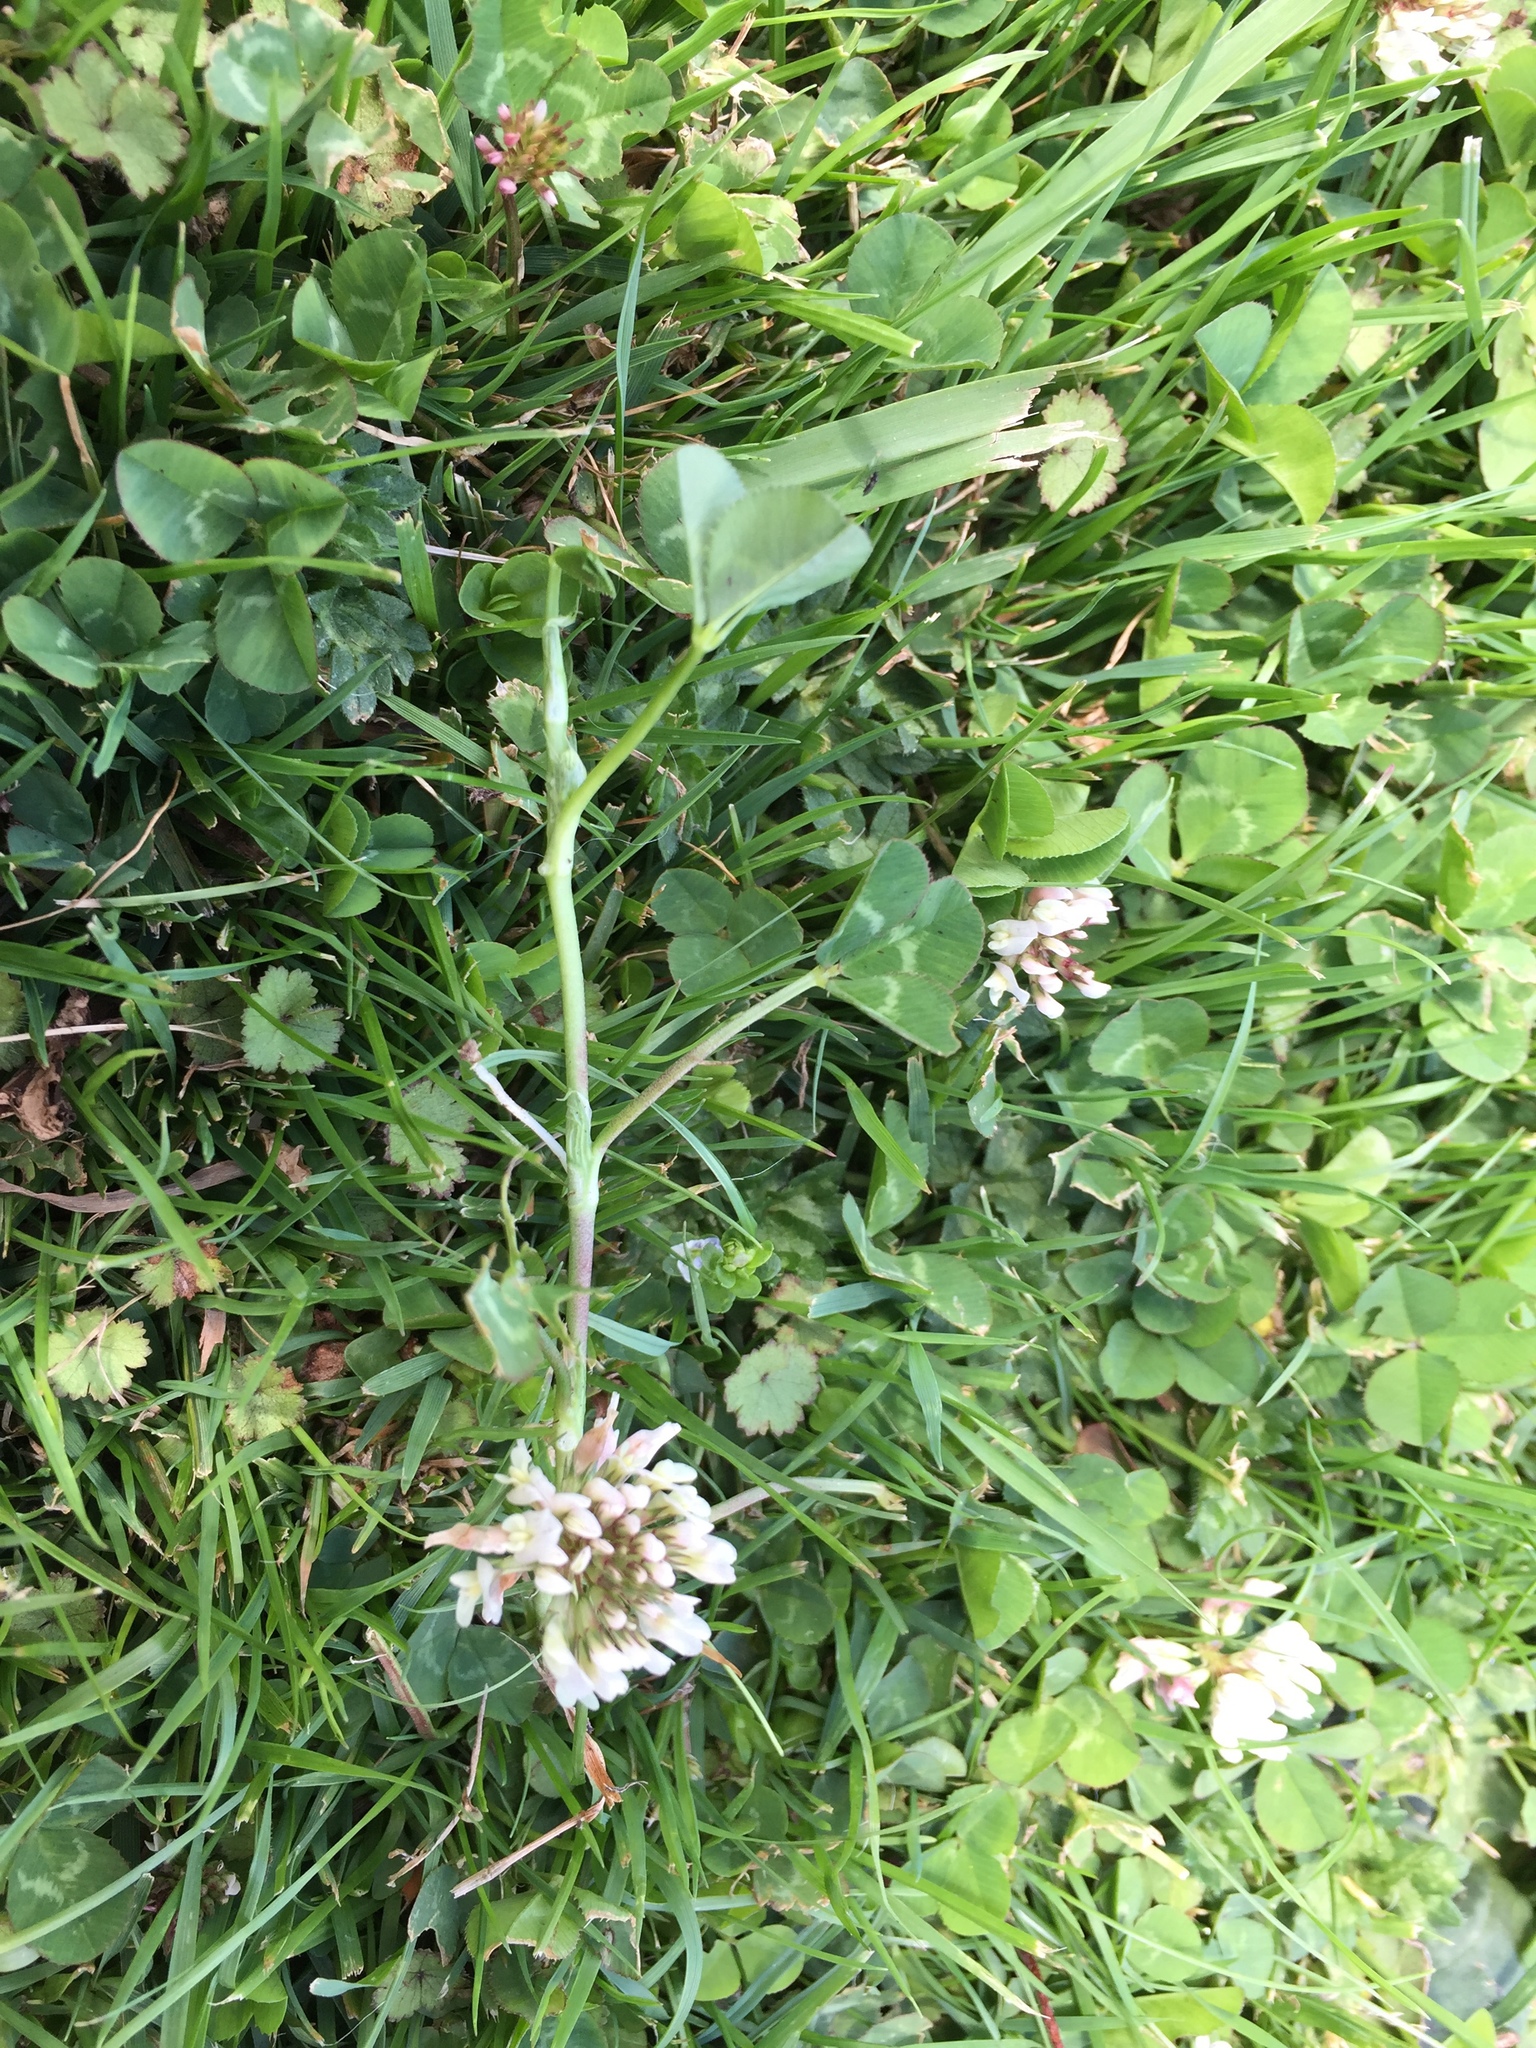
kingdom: Plantae
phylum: Tracheophyta
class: Magnoliopsida
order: Fabales
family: Fabaceae
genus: Trifolium
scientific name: Trifolium repens
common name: White clover
